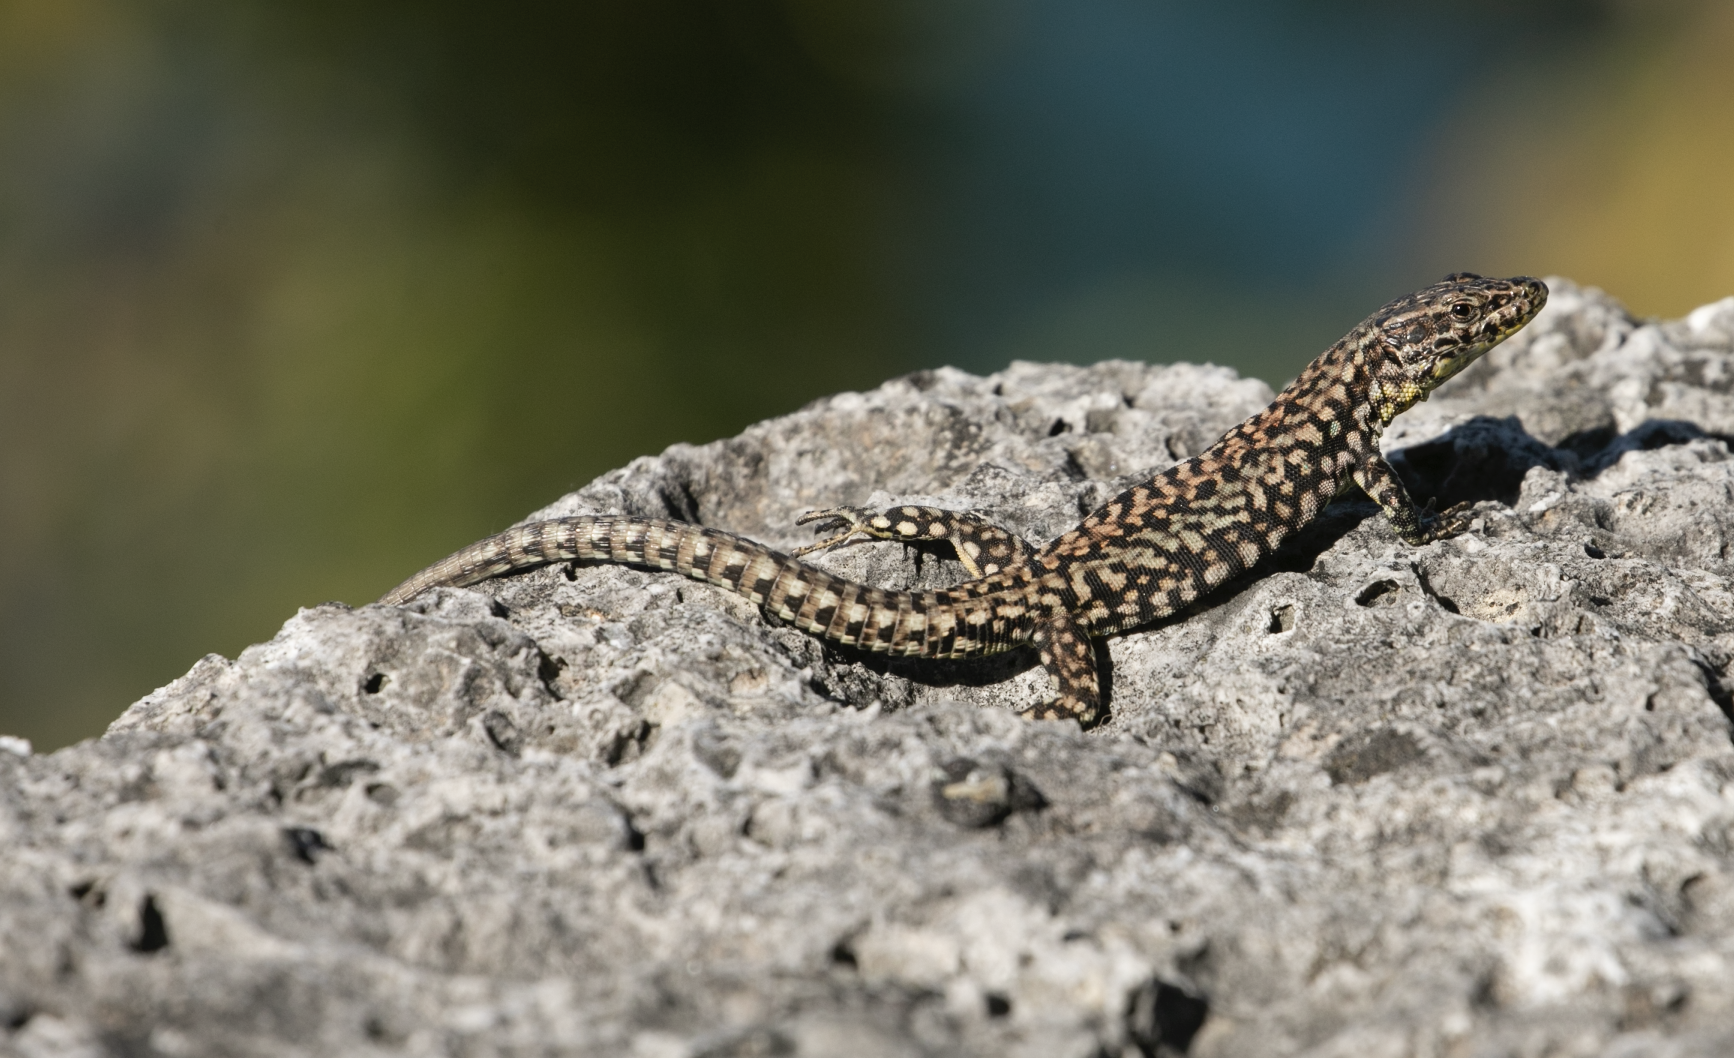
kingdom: Animalia
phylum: Chordata
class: Squamata
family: Lacertidae
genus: Podarcis
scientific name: Podarcis muralis
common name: Common wall lizard
